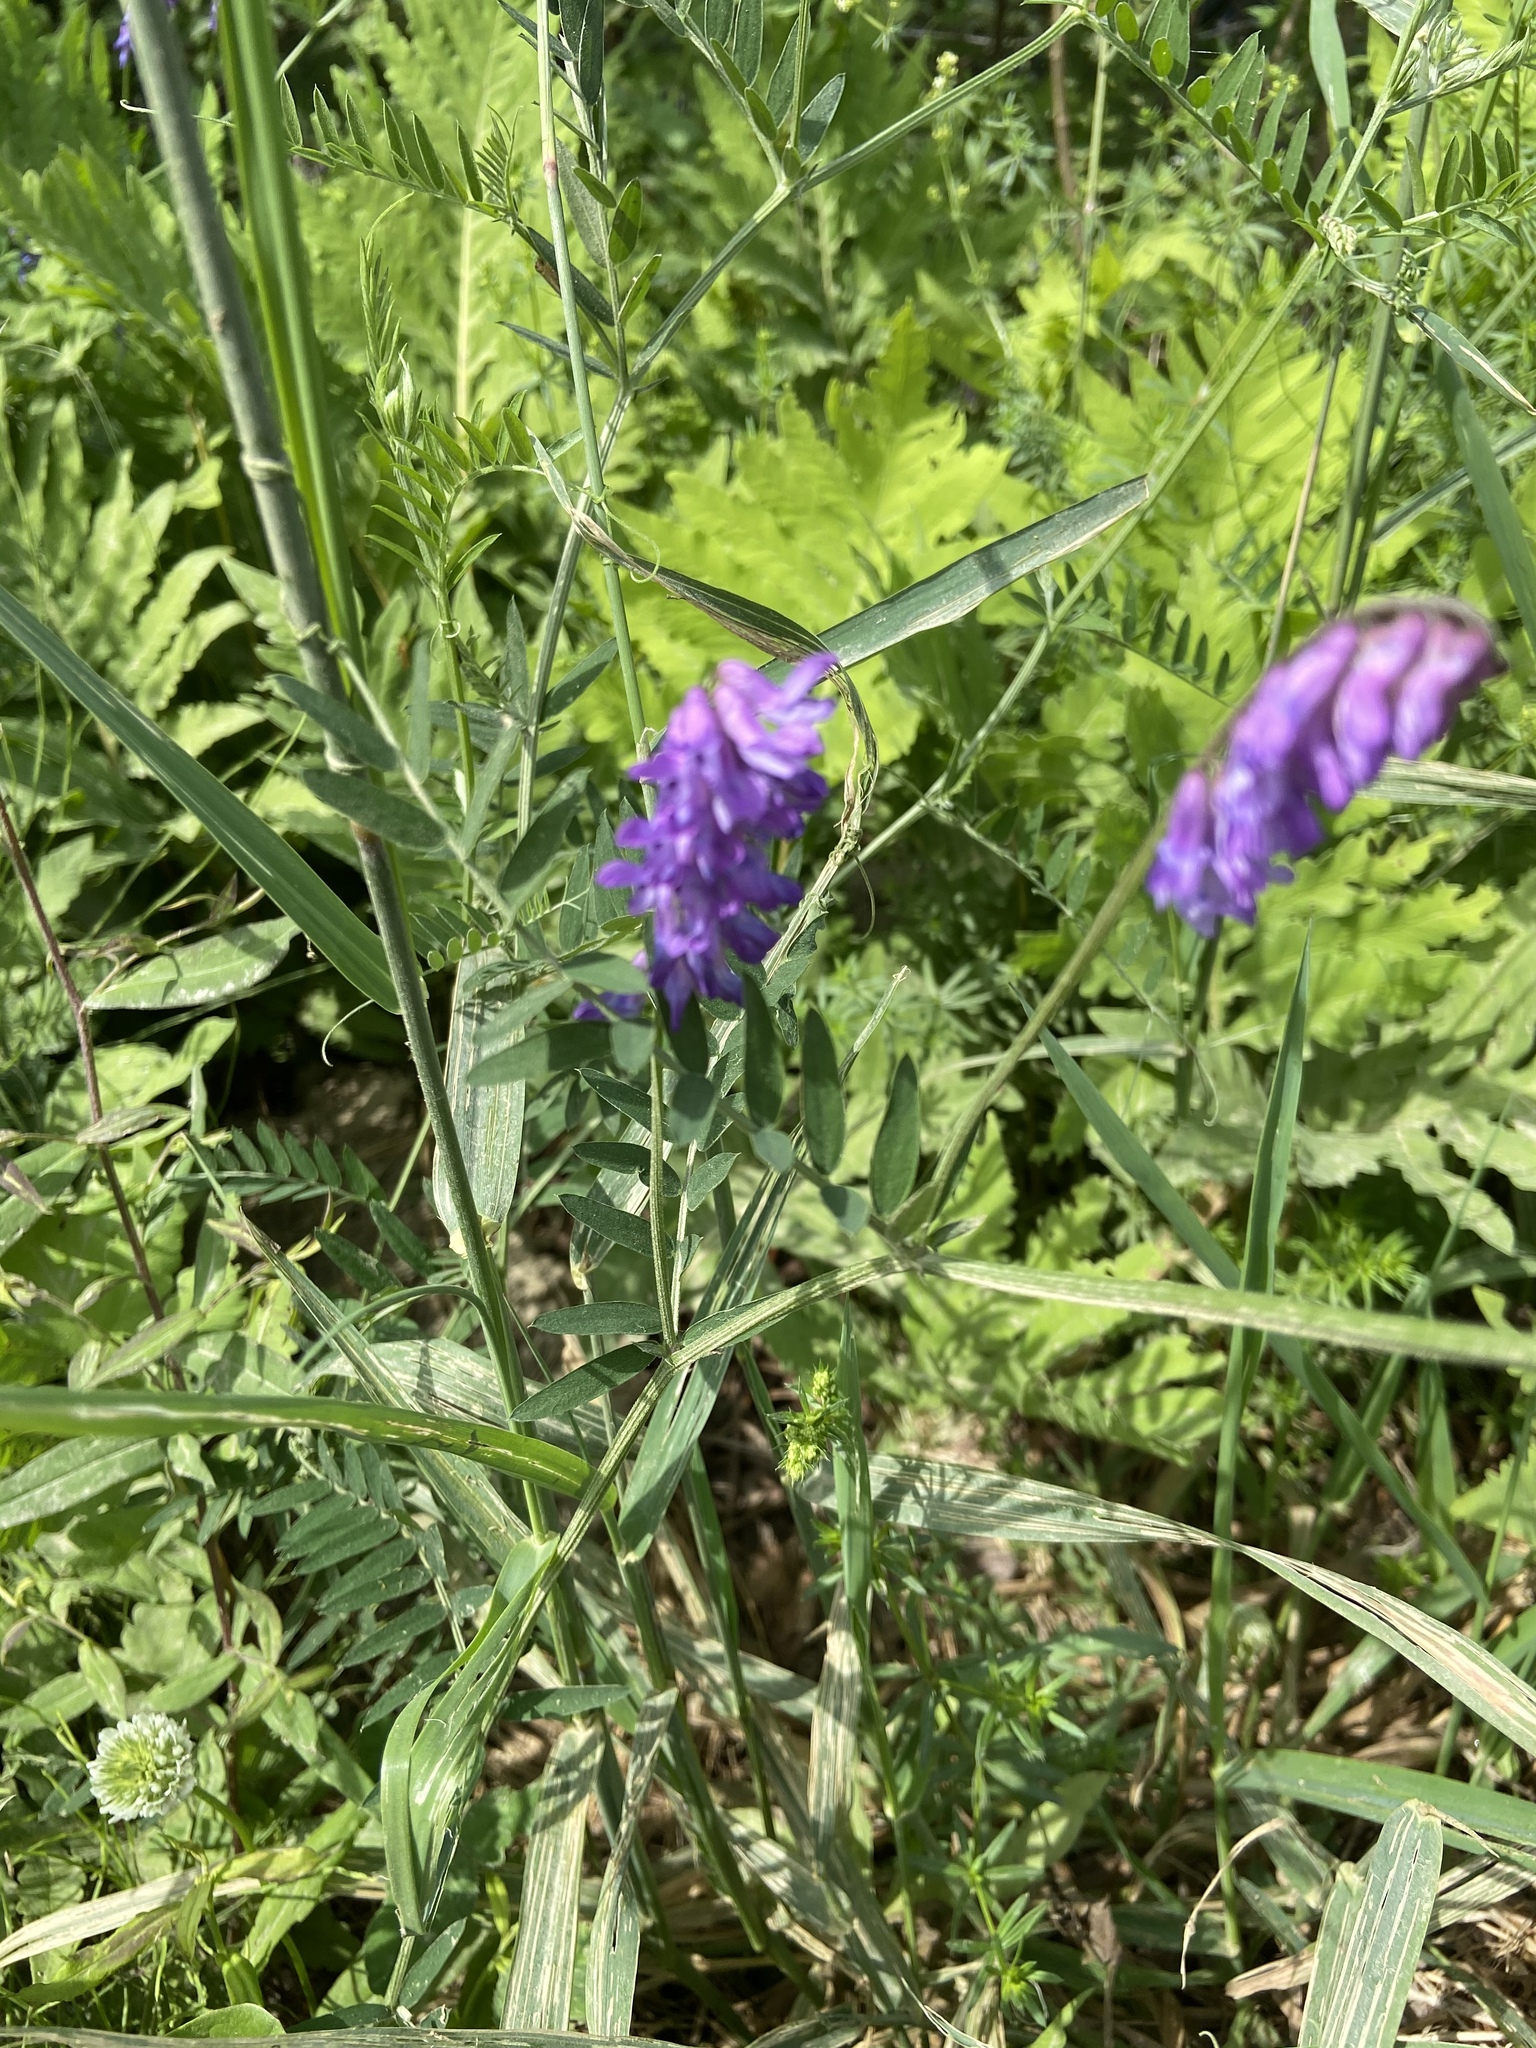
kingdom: Plantae
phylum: Tracheophyta
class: Magnoliopsida
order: Fabales
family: Fabaceae
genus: Vicia
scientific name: Vicia cracca
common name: Bird vetch
